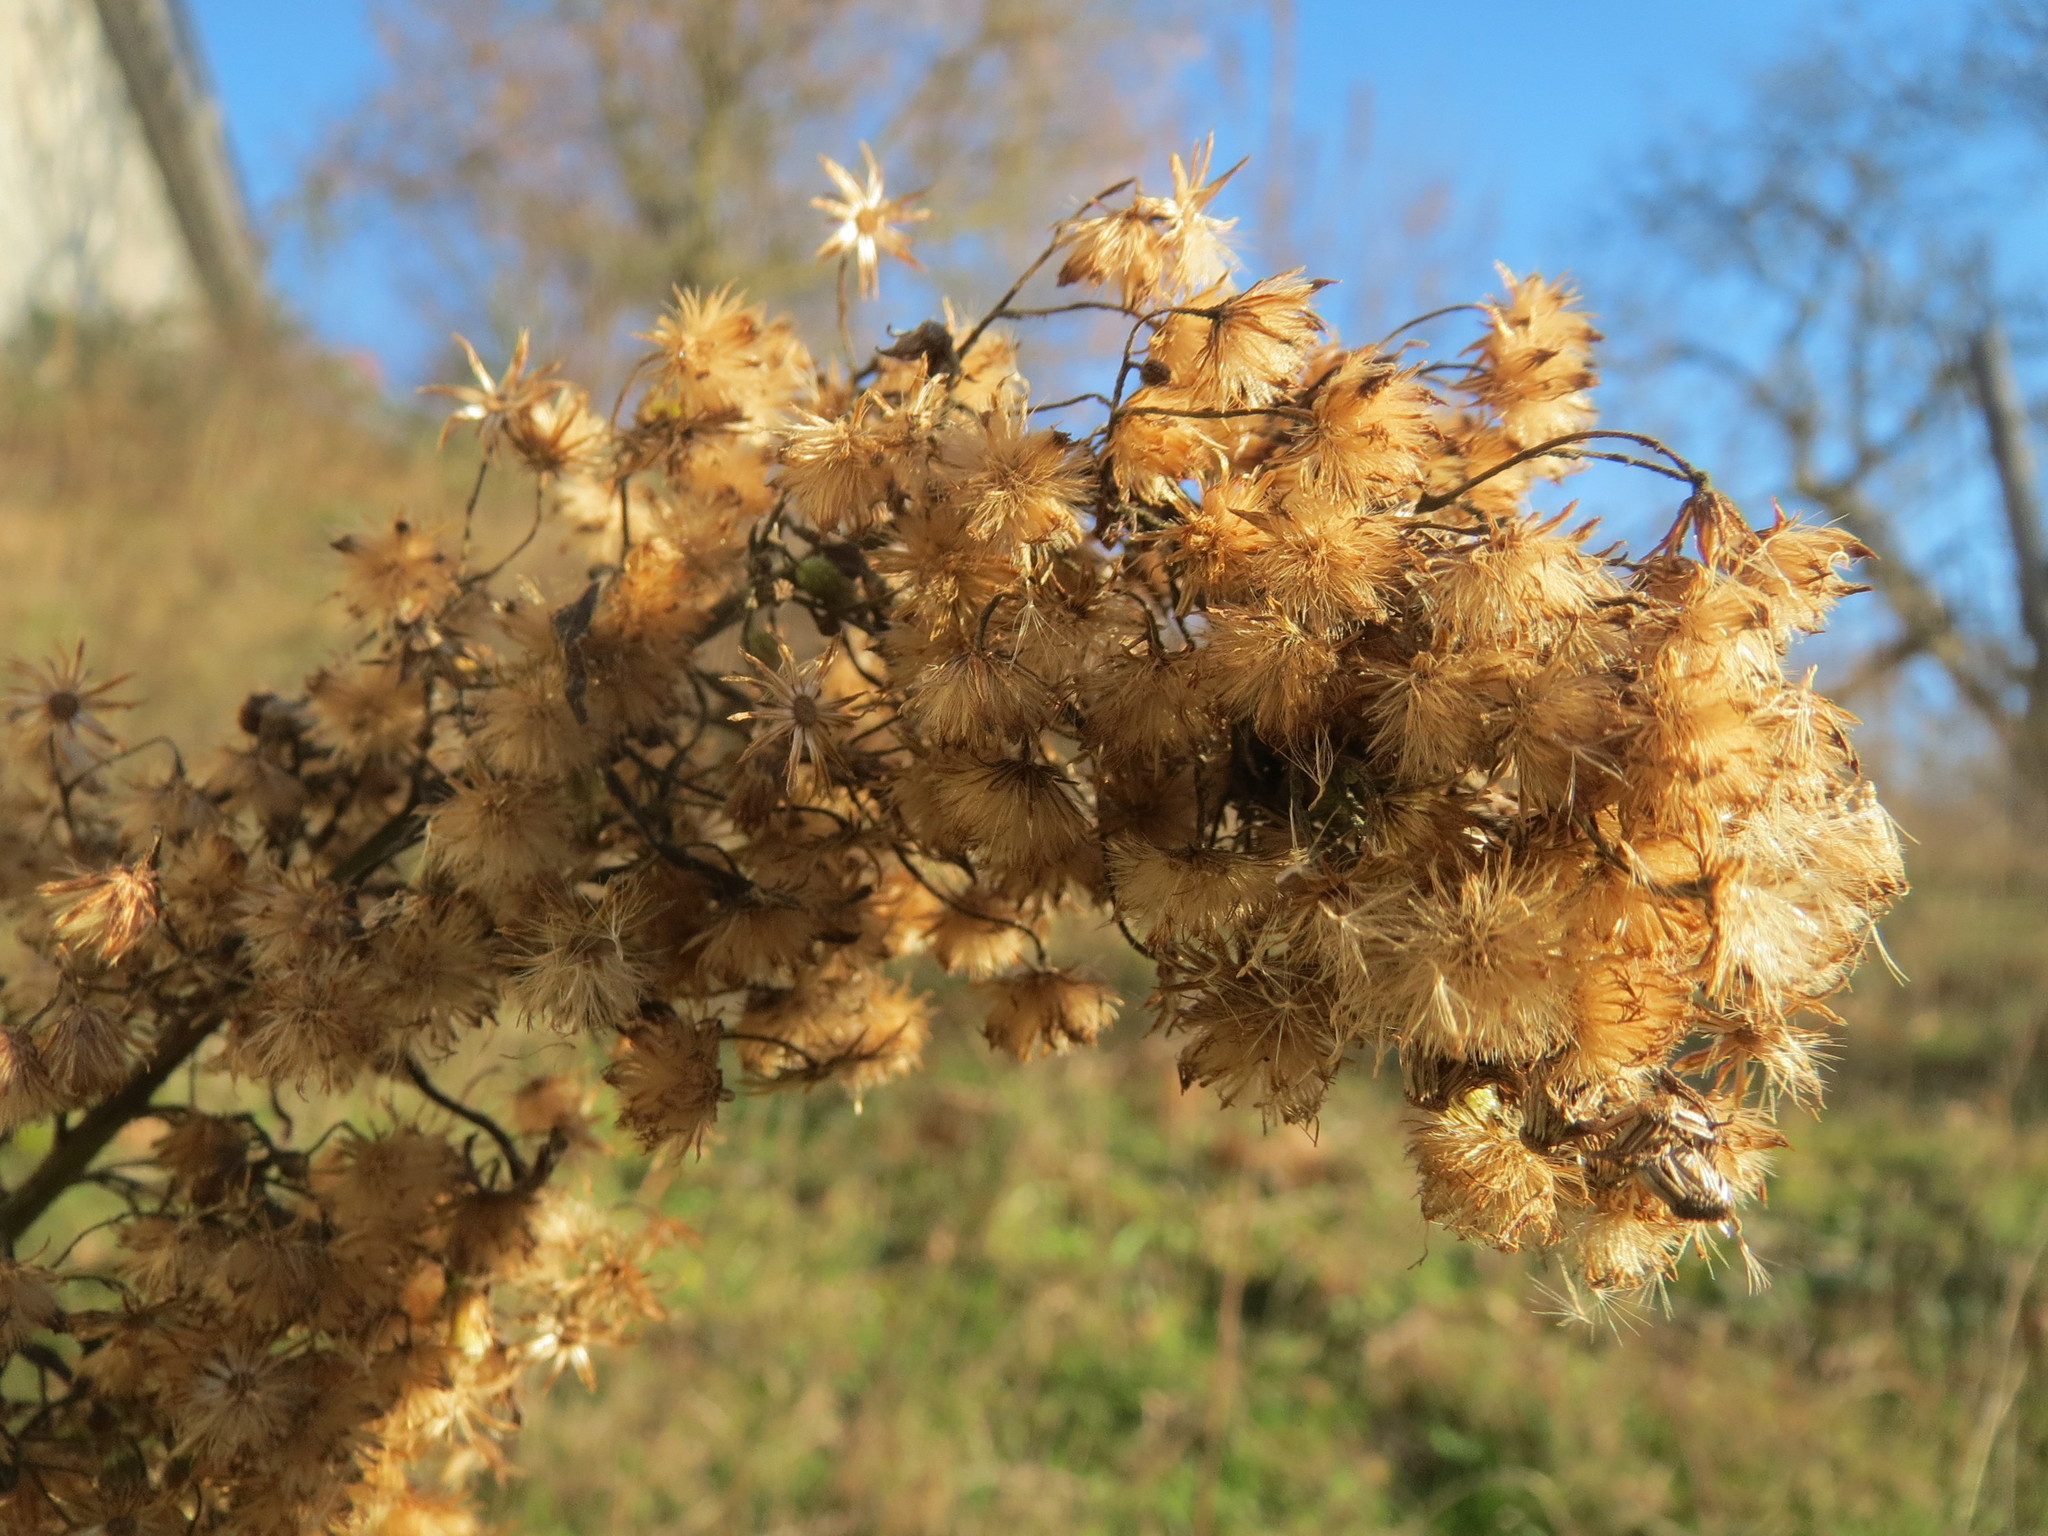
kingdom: Plantae
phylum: Tracheophyta
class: Magnoliopsida
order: Asterales
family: Asteraceae
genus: Erigeron
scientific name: Erigeron canadensis
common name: Canadian fleabane
